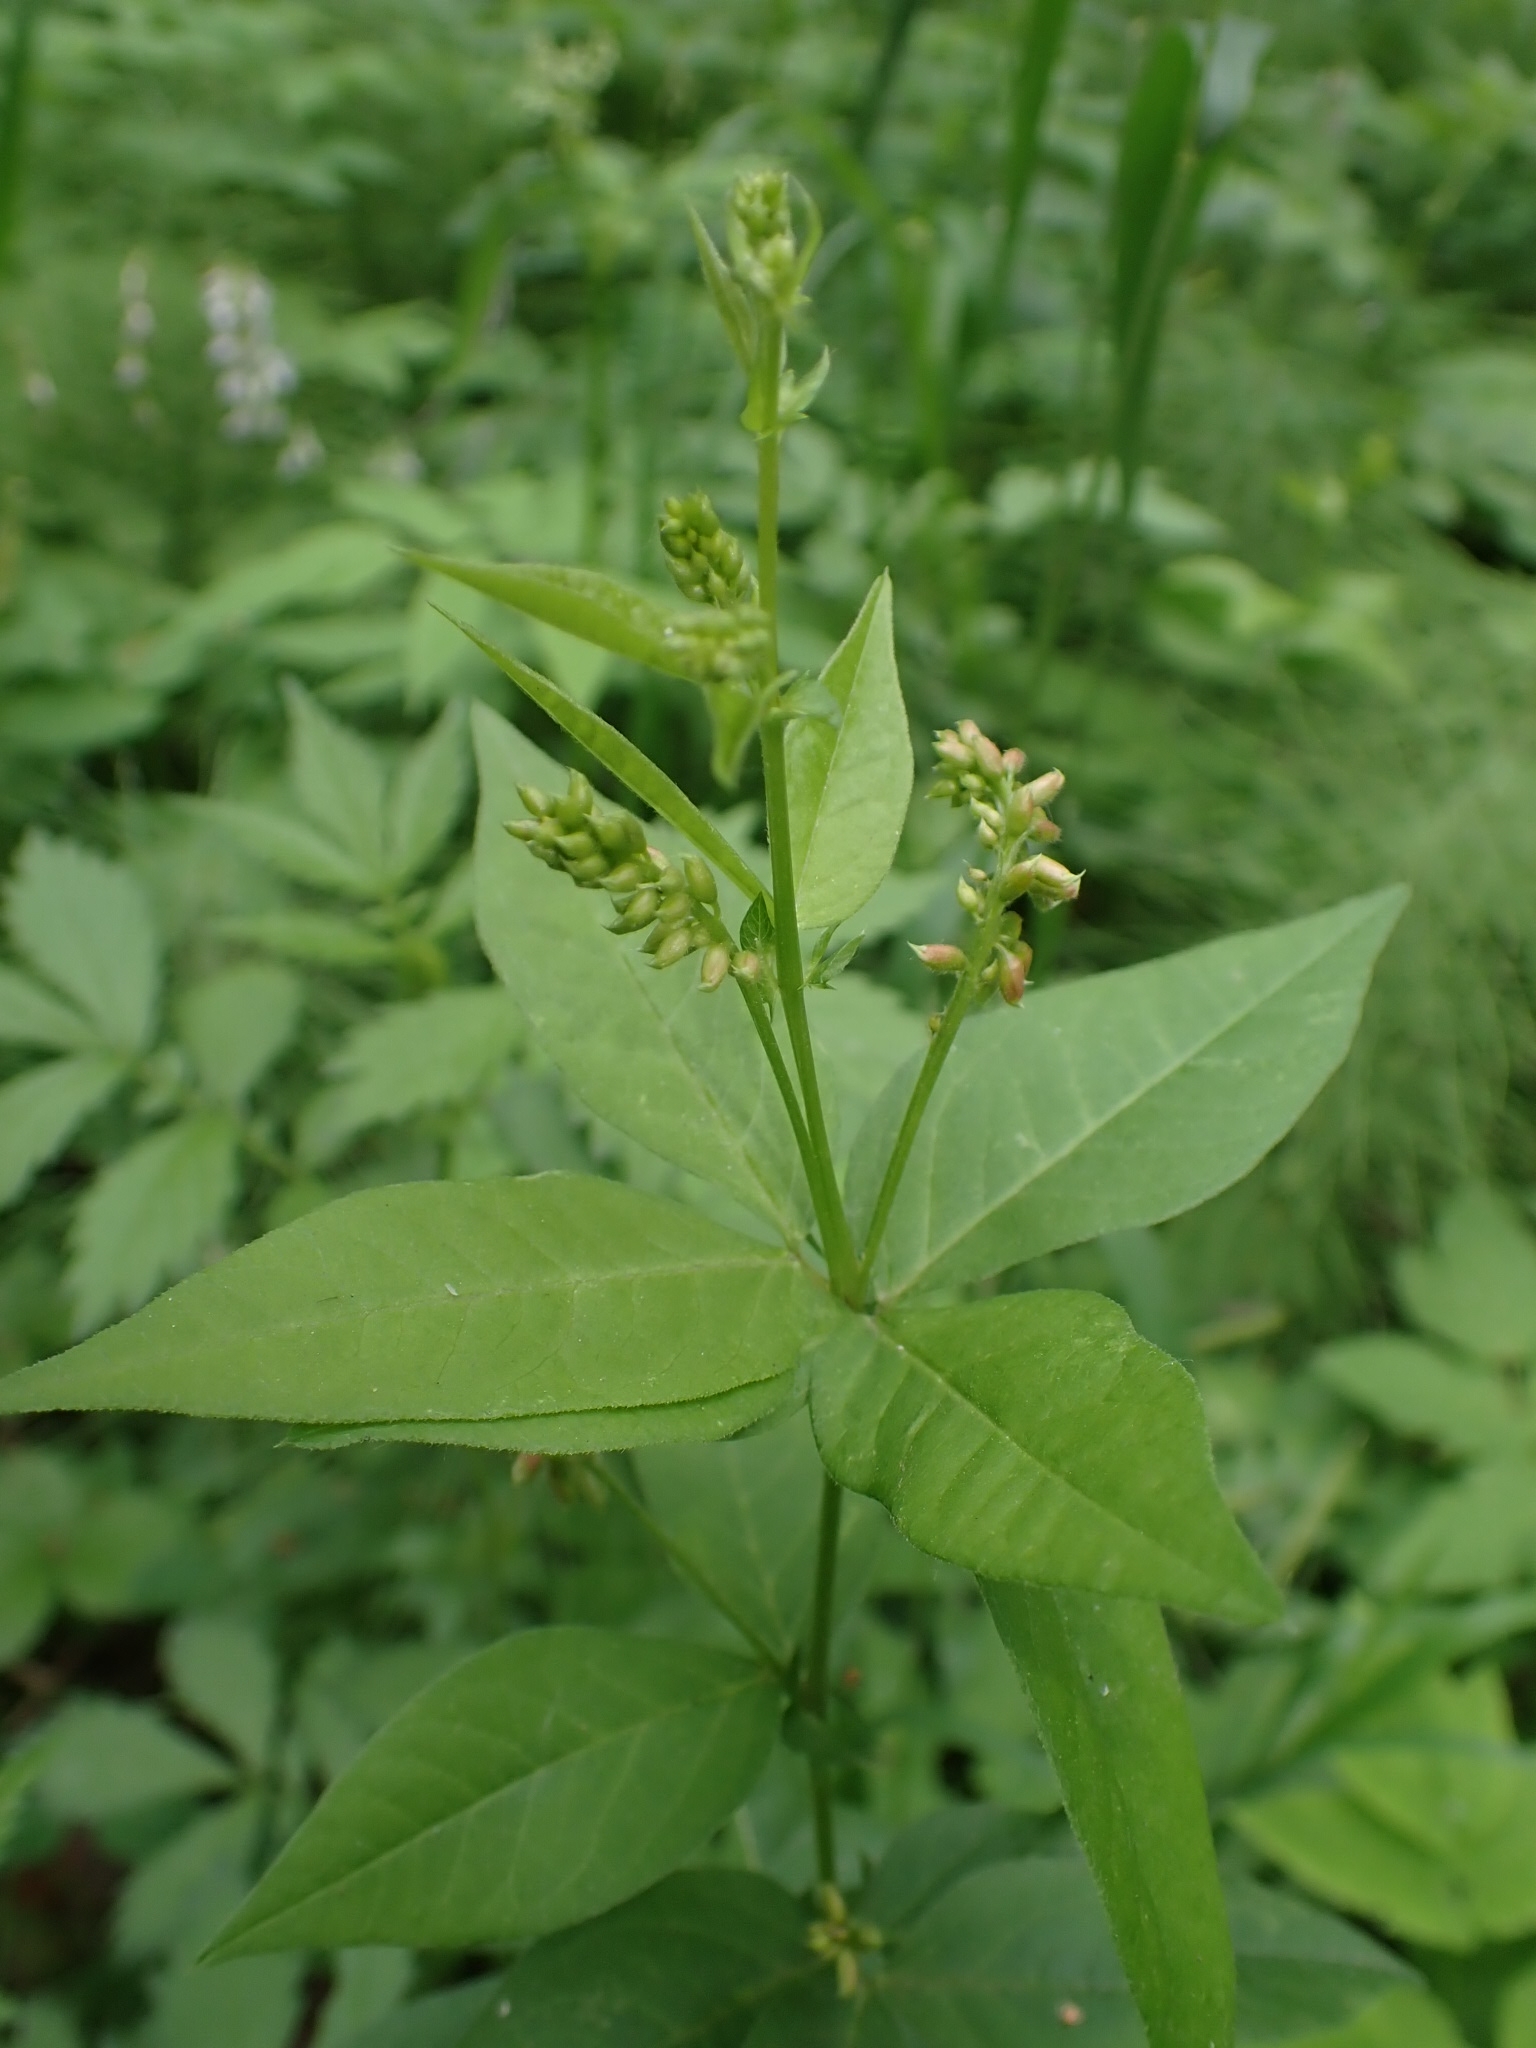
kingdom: Plantae
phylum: Tracheophyta
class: Magnoliopsida
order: Fabales
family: Fabaceae
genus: Vicia
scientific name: Vicia unijuga
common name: Two-leaf vetch
